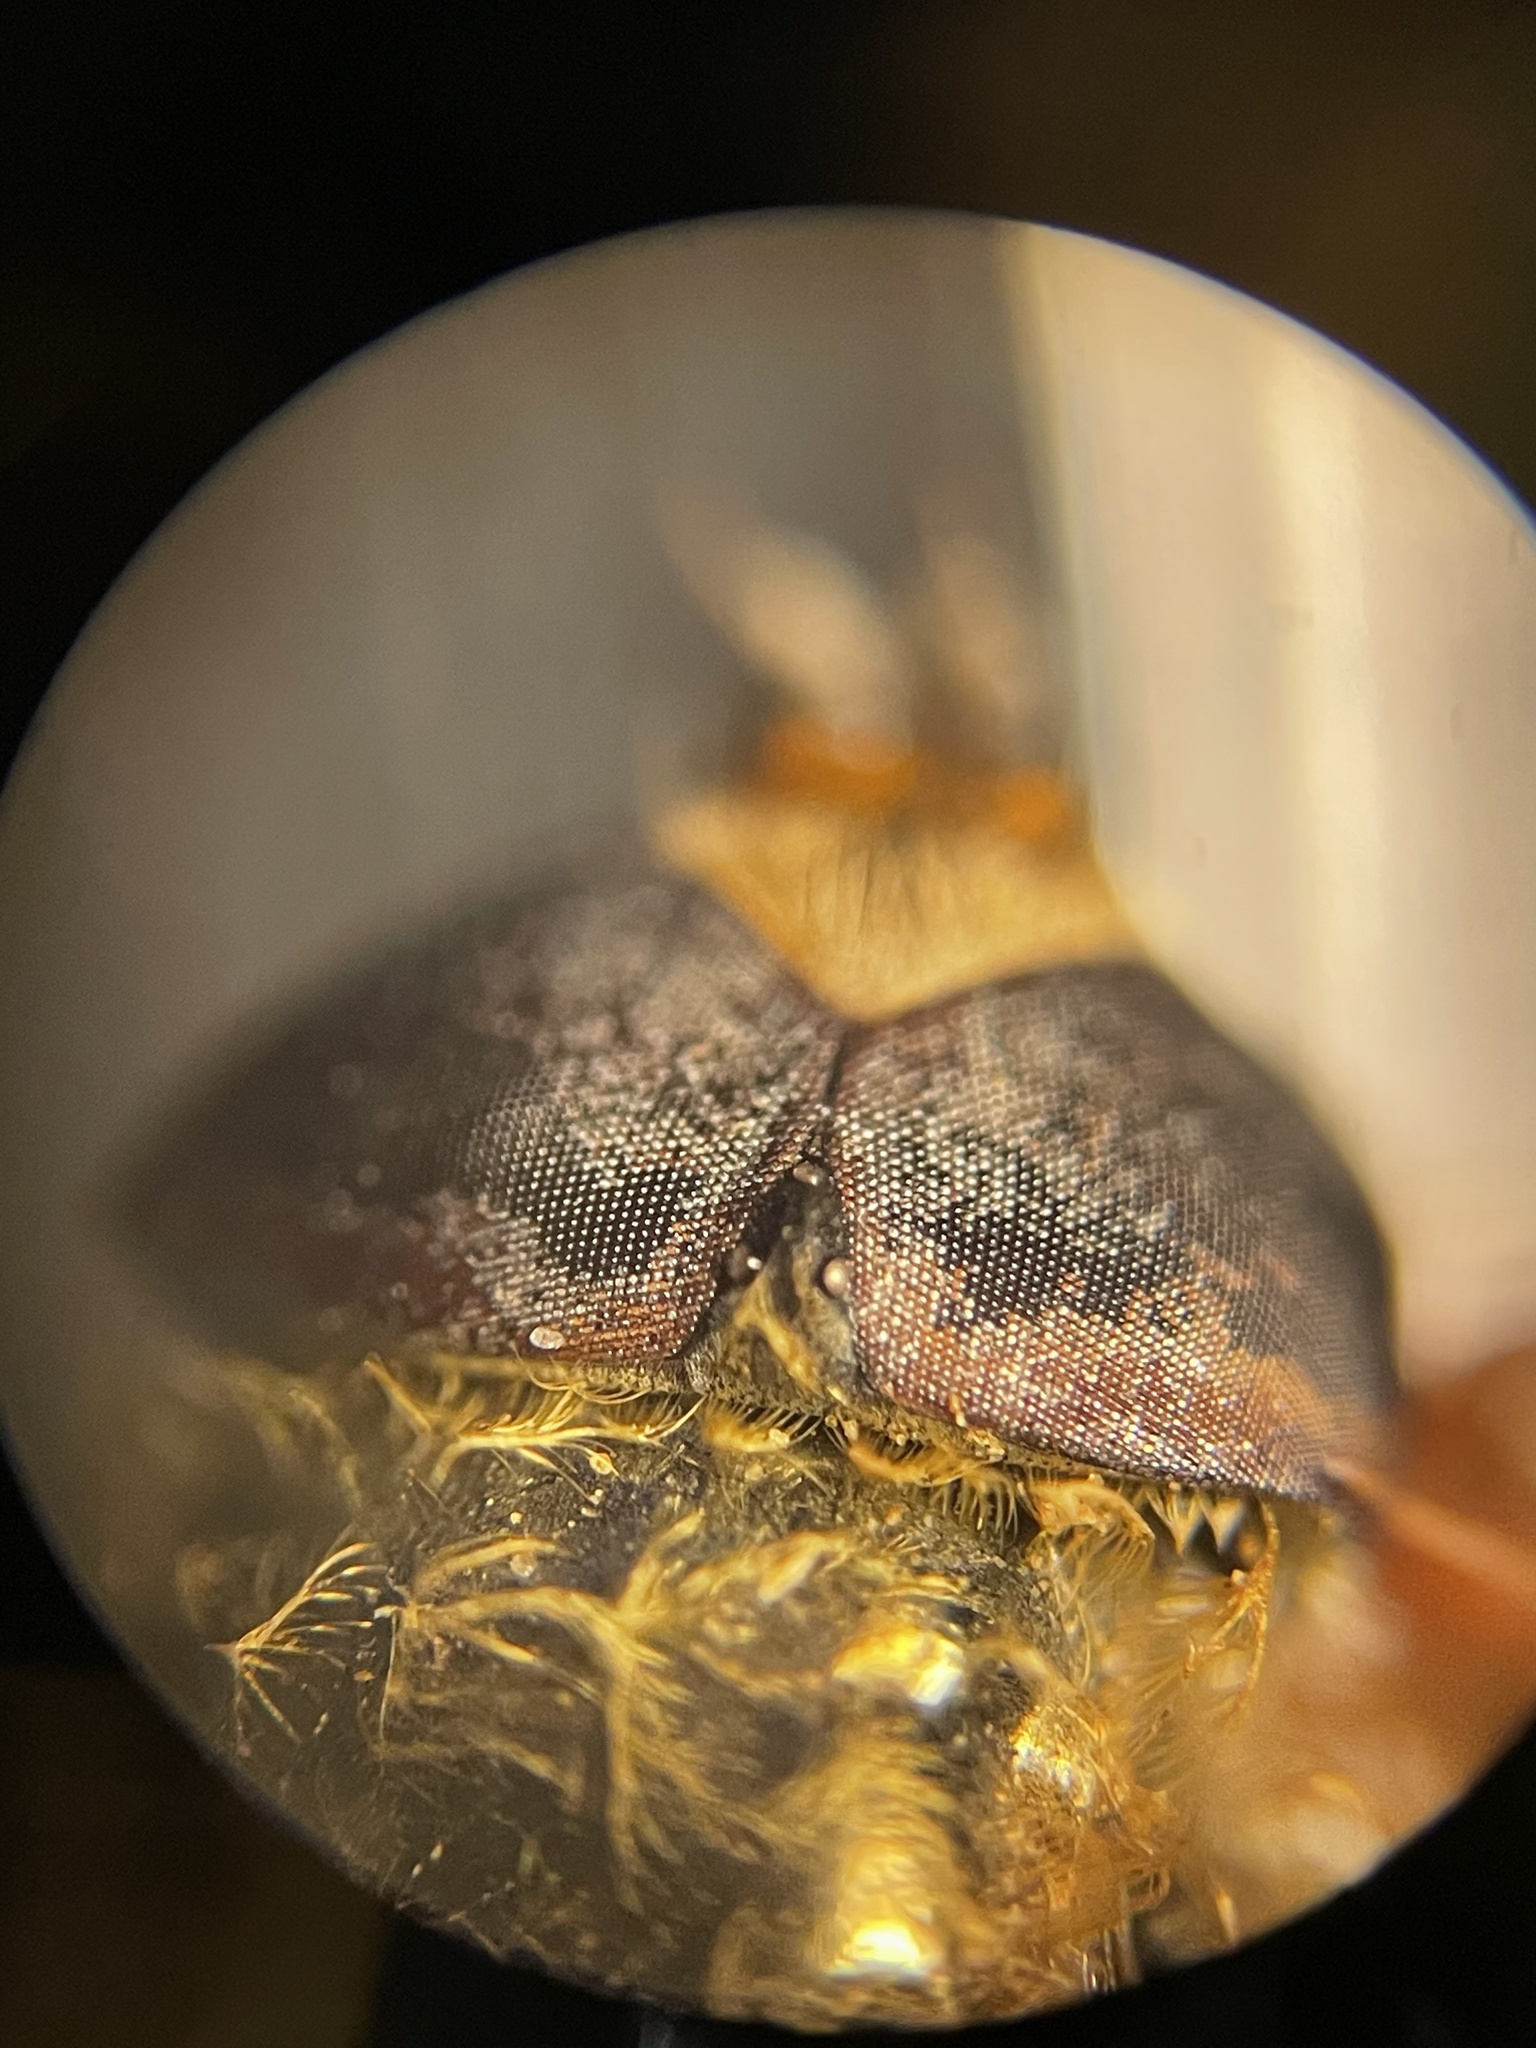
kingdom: Animalia
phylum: Arthropoda
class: Insecta
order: Diptera
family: Syrphidae
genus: Eupeodes
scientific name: Eupeodes americanus
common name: Long-tailed aphideater
